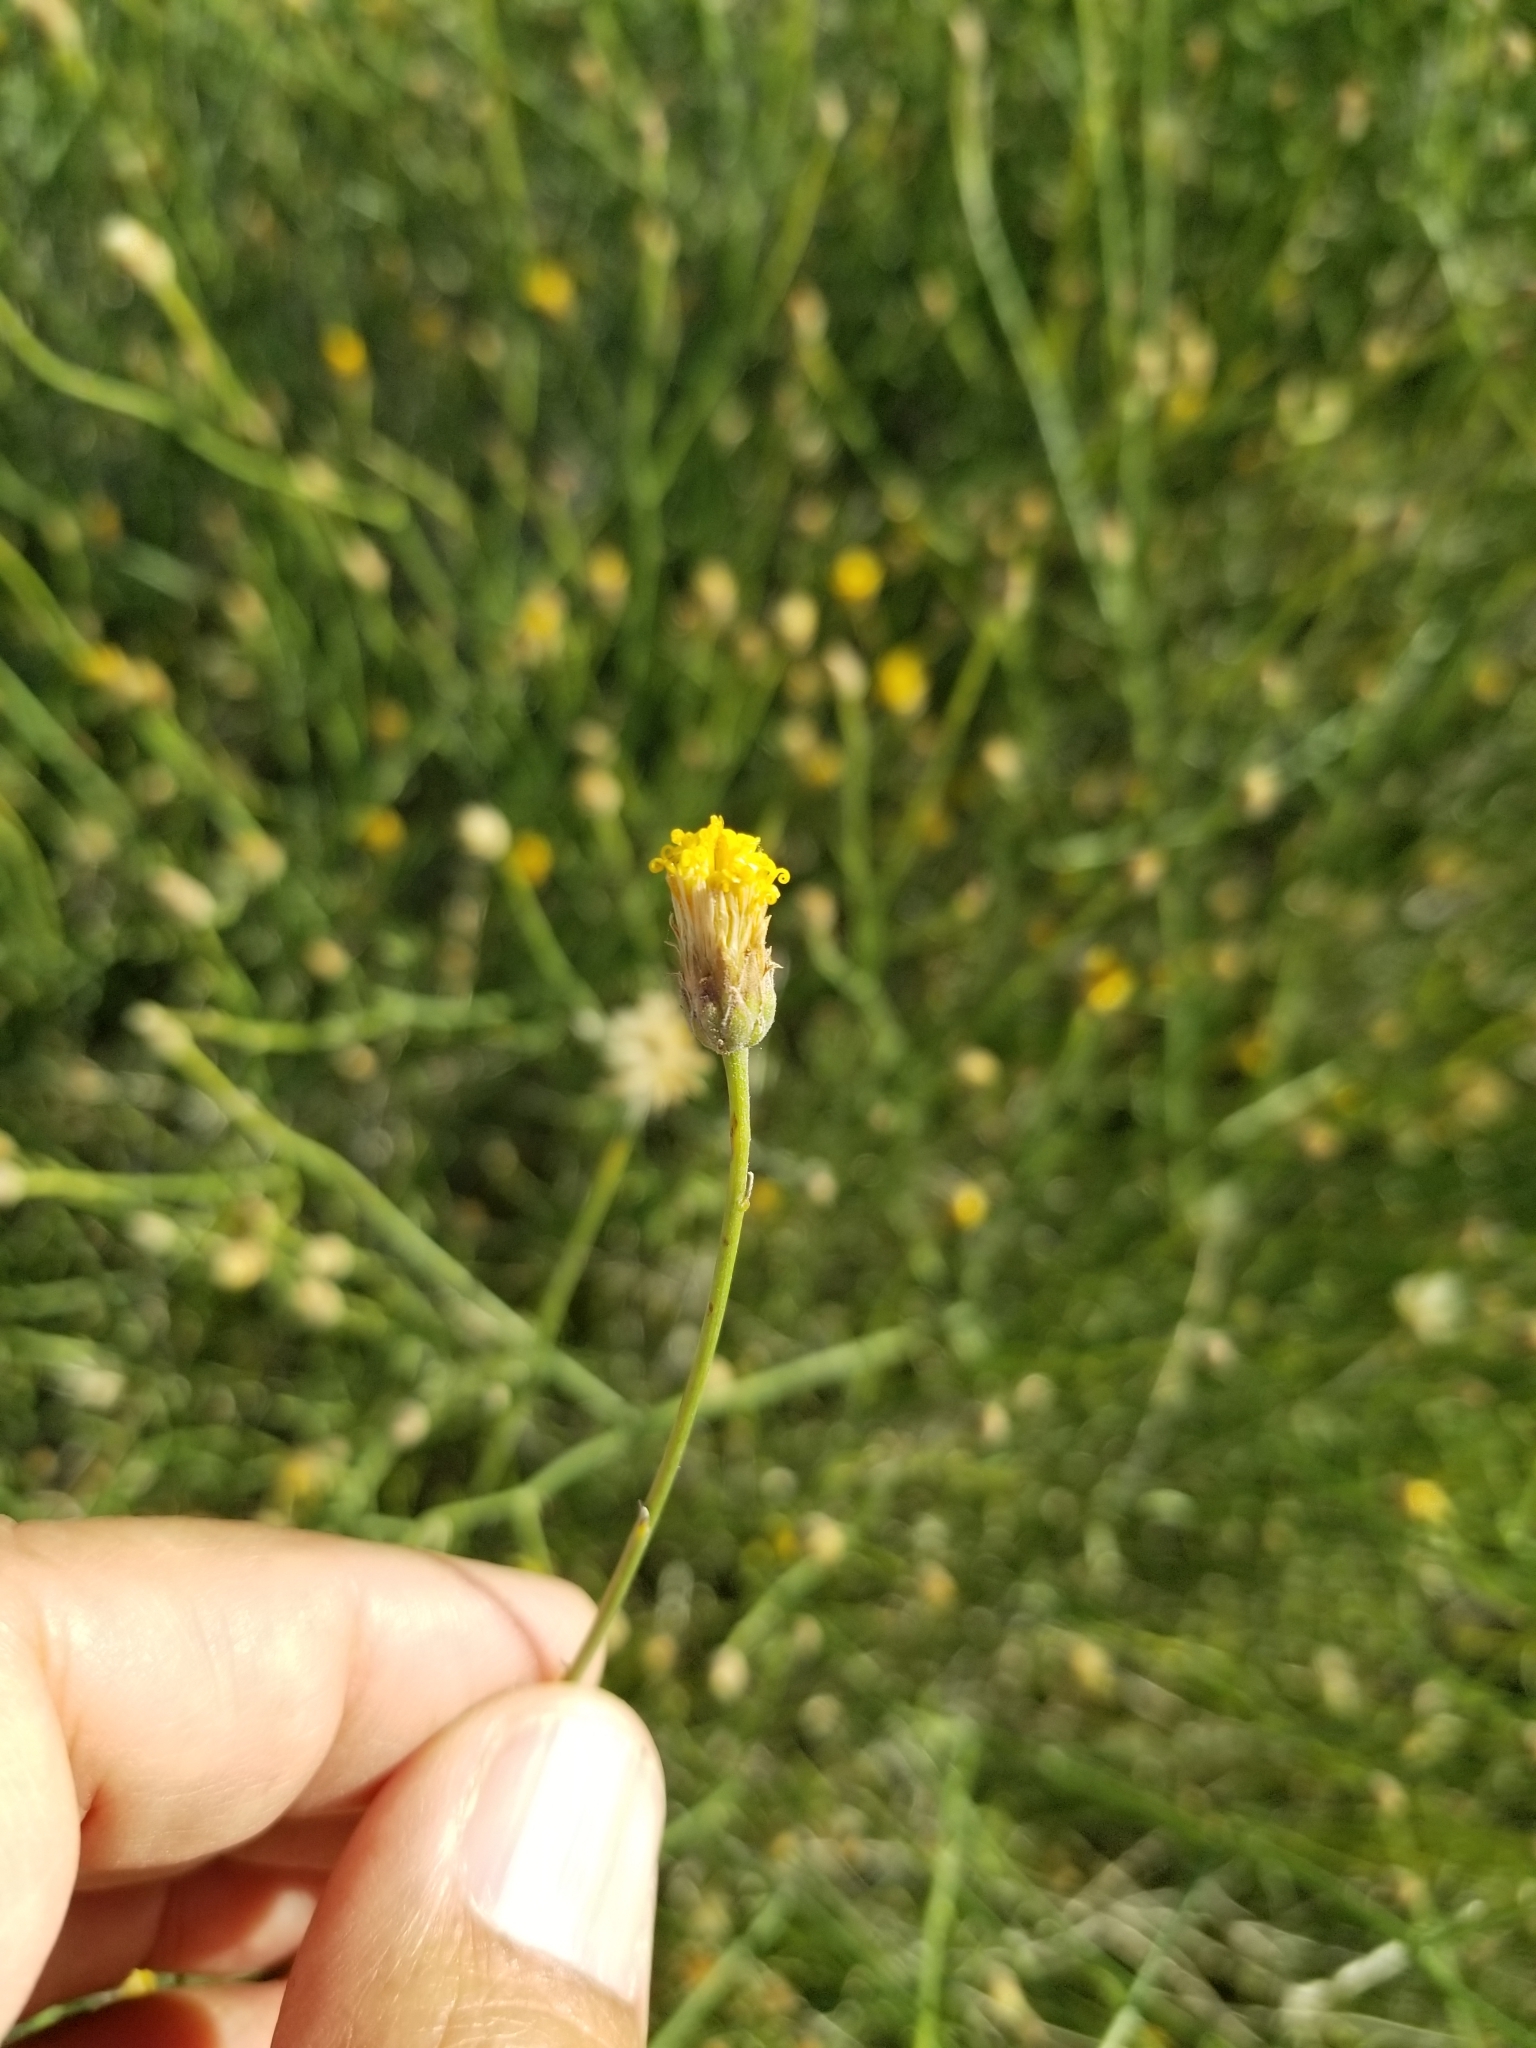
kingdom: Plantae
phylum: Tracheophyta
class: Magnoliopsida
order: Asterales
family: Asteraceae
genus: Bebbia
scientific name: Bebbia juncea
